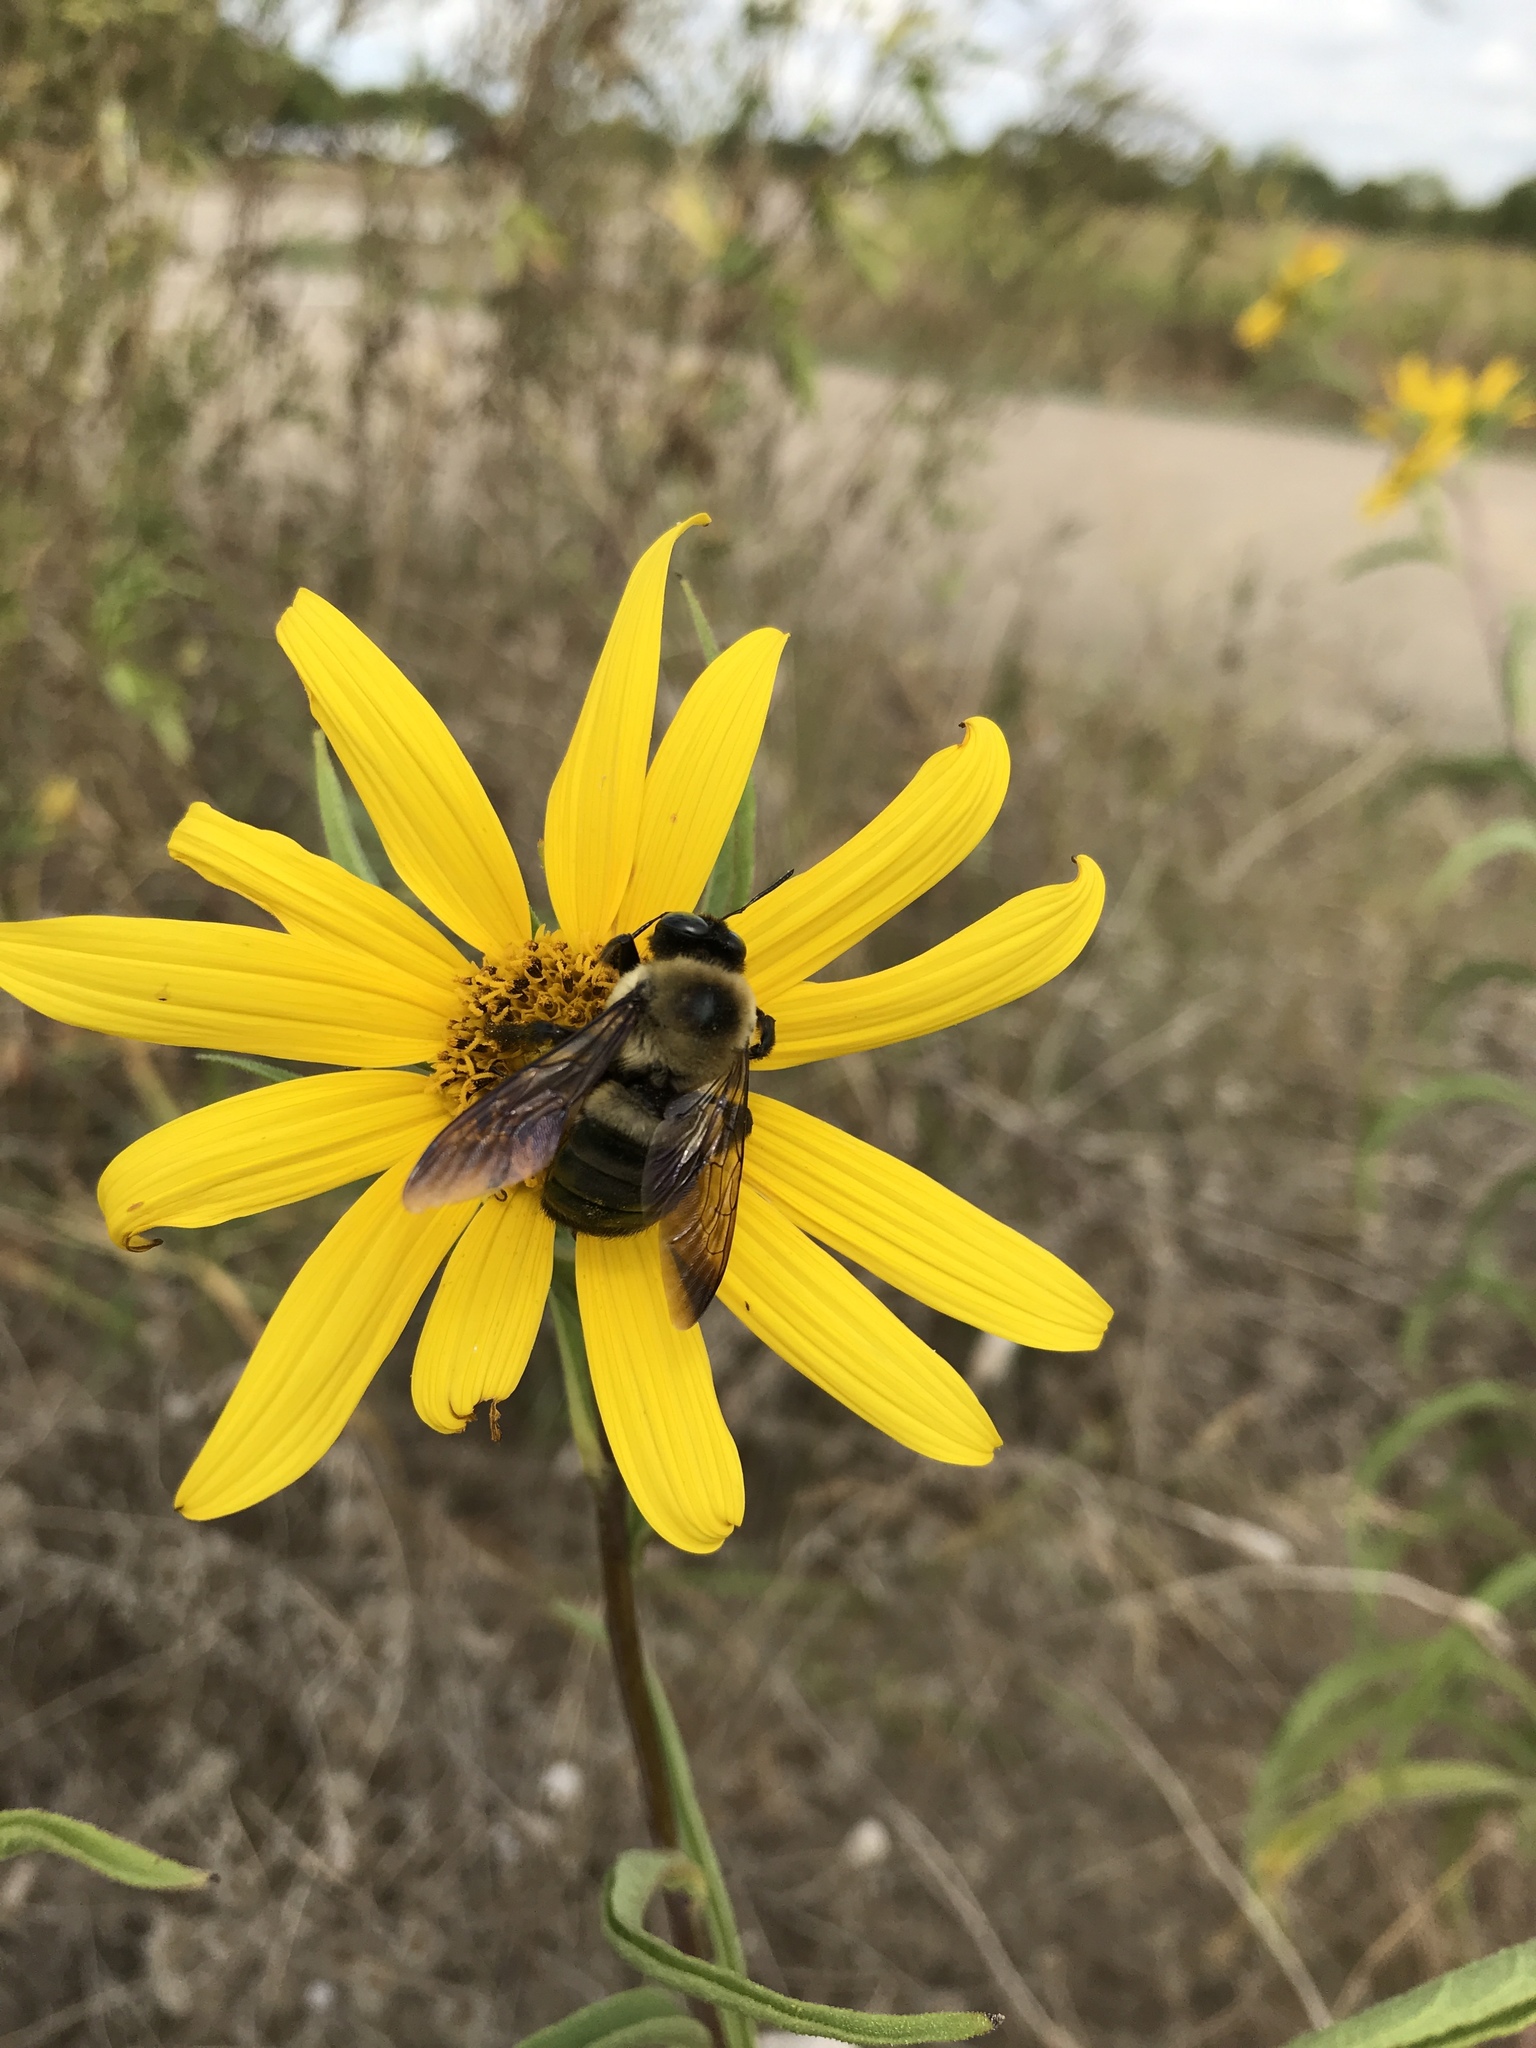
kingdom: Animalia
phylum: Arthropoda
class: Insecta
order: Hymenoptera
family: Apidae
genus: Xylocopa
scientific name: Xylocopa virginica
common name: Carpenter bee
